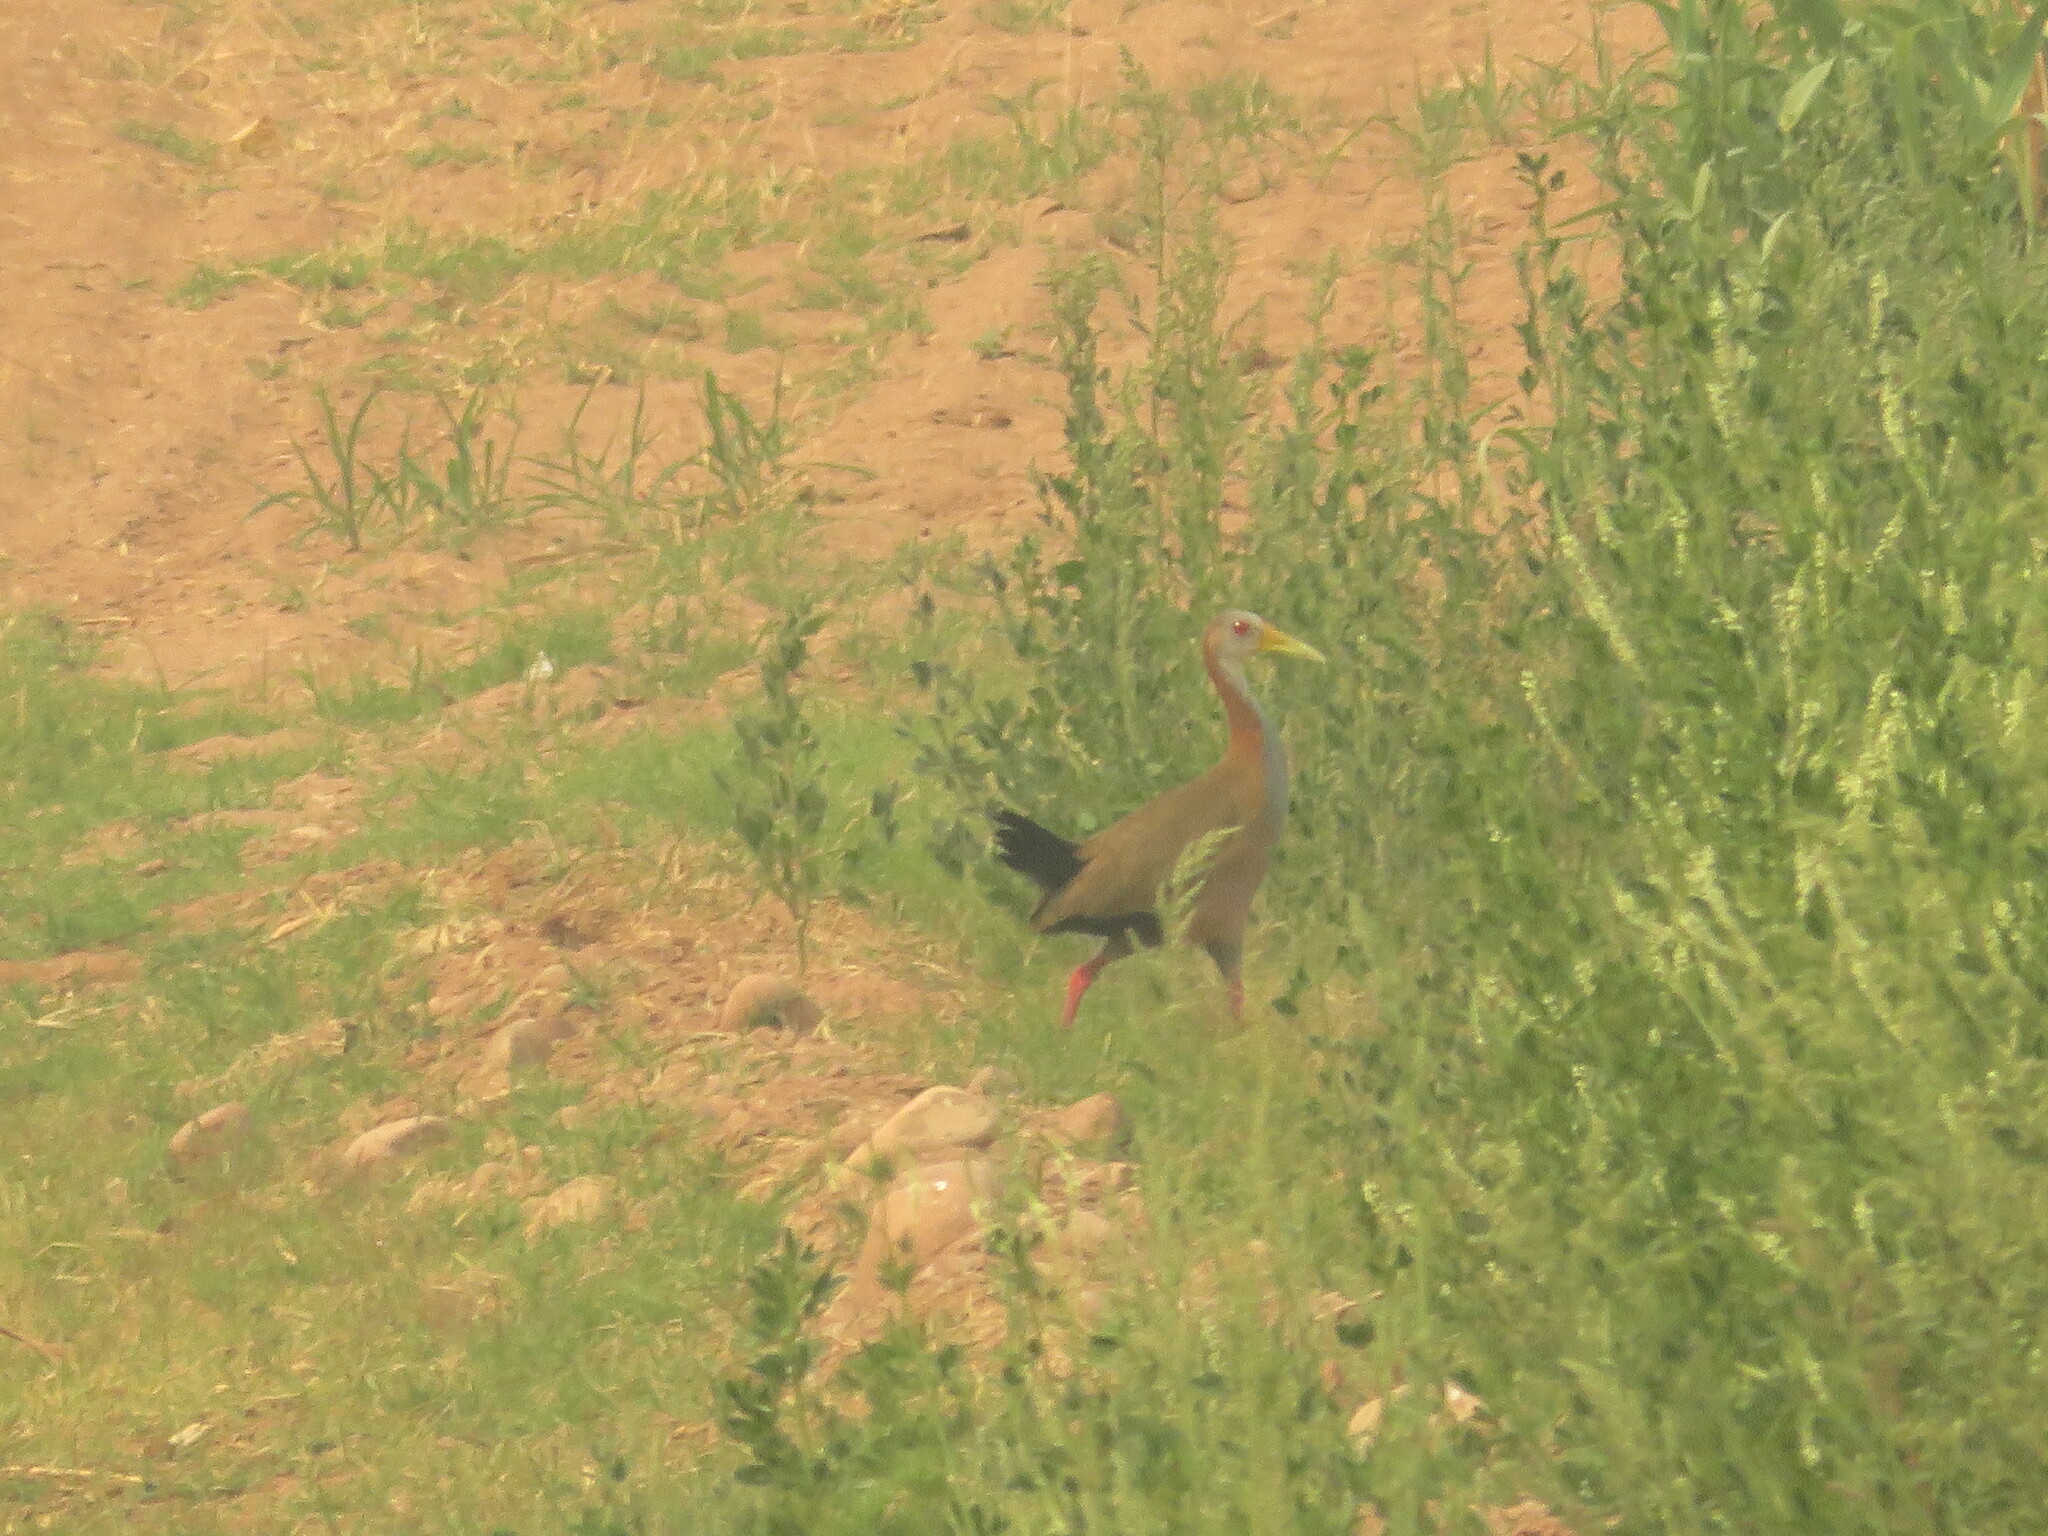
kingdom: Animalia
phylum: Chordata
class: Aves
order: Gruiformes
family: Rallidae
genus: Aramides
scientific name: Aramides ypecaha
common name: Giant wood rail
